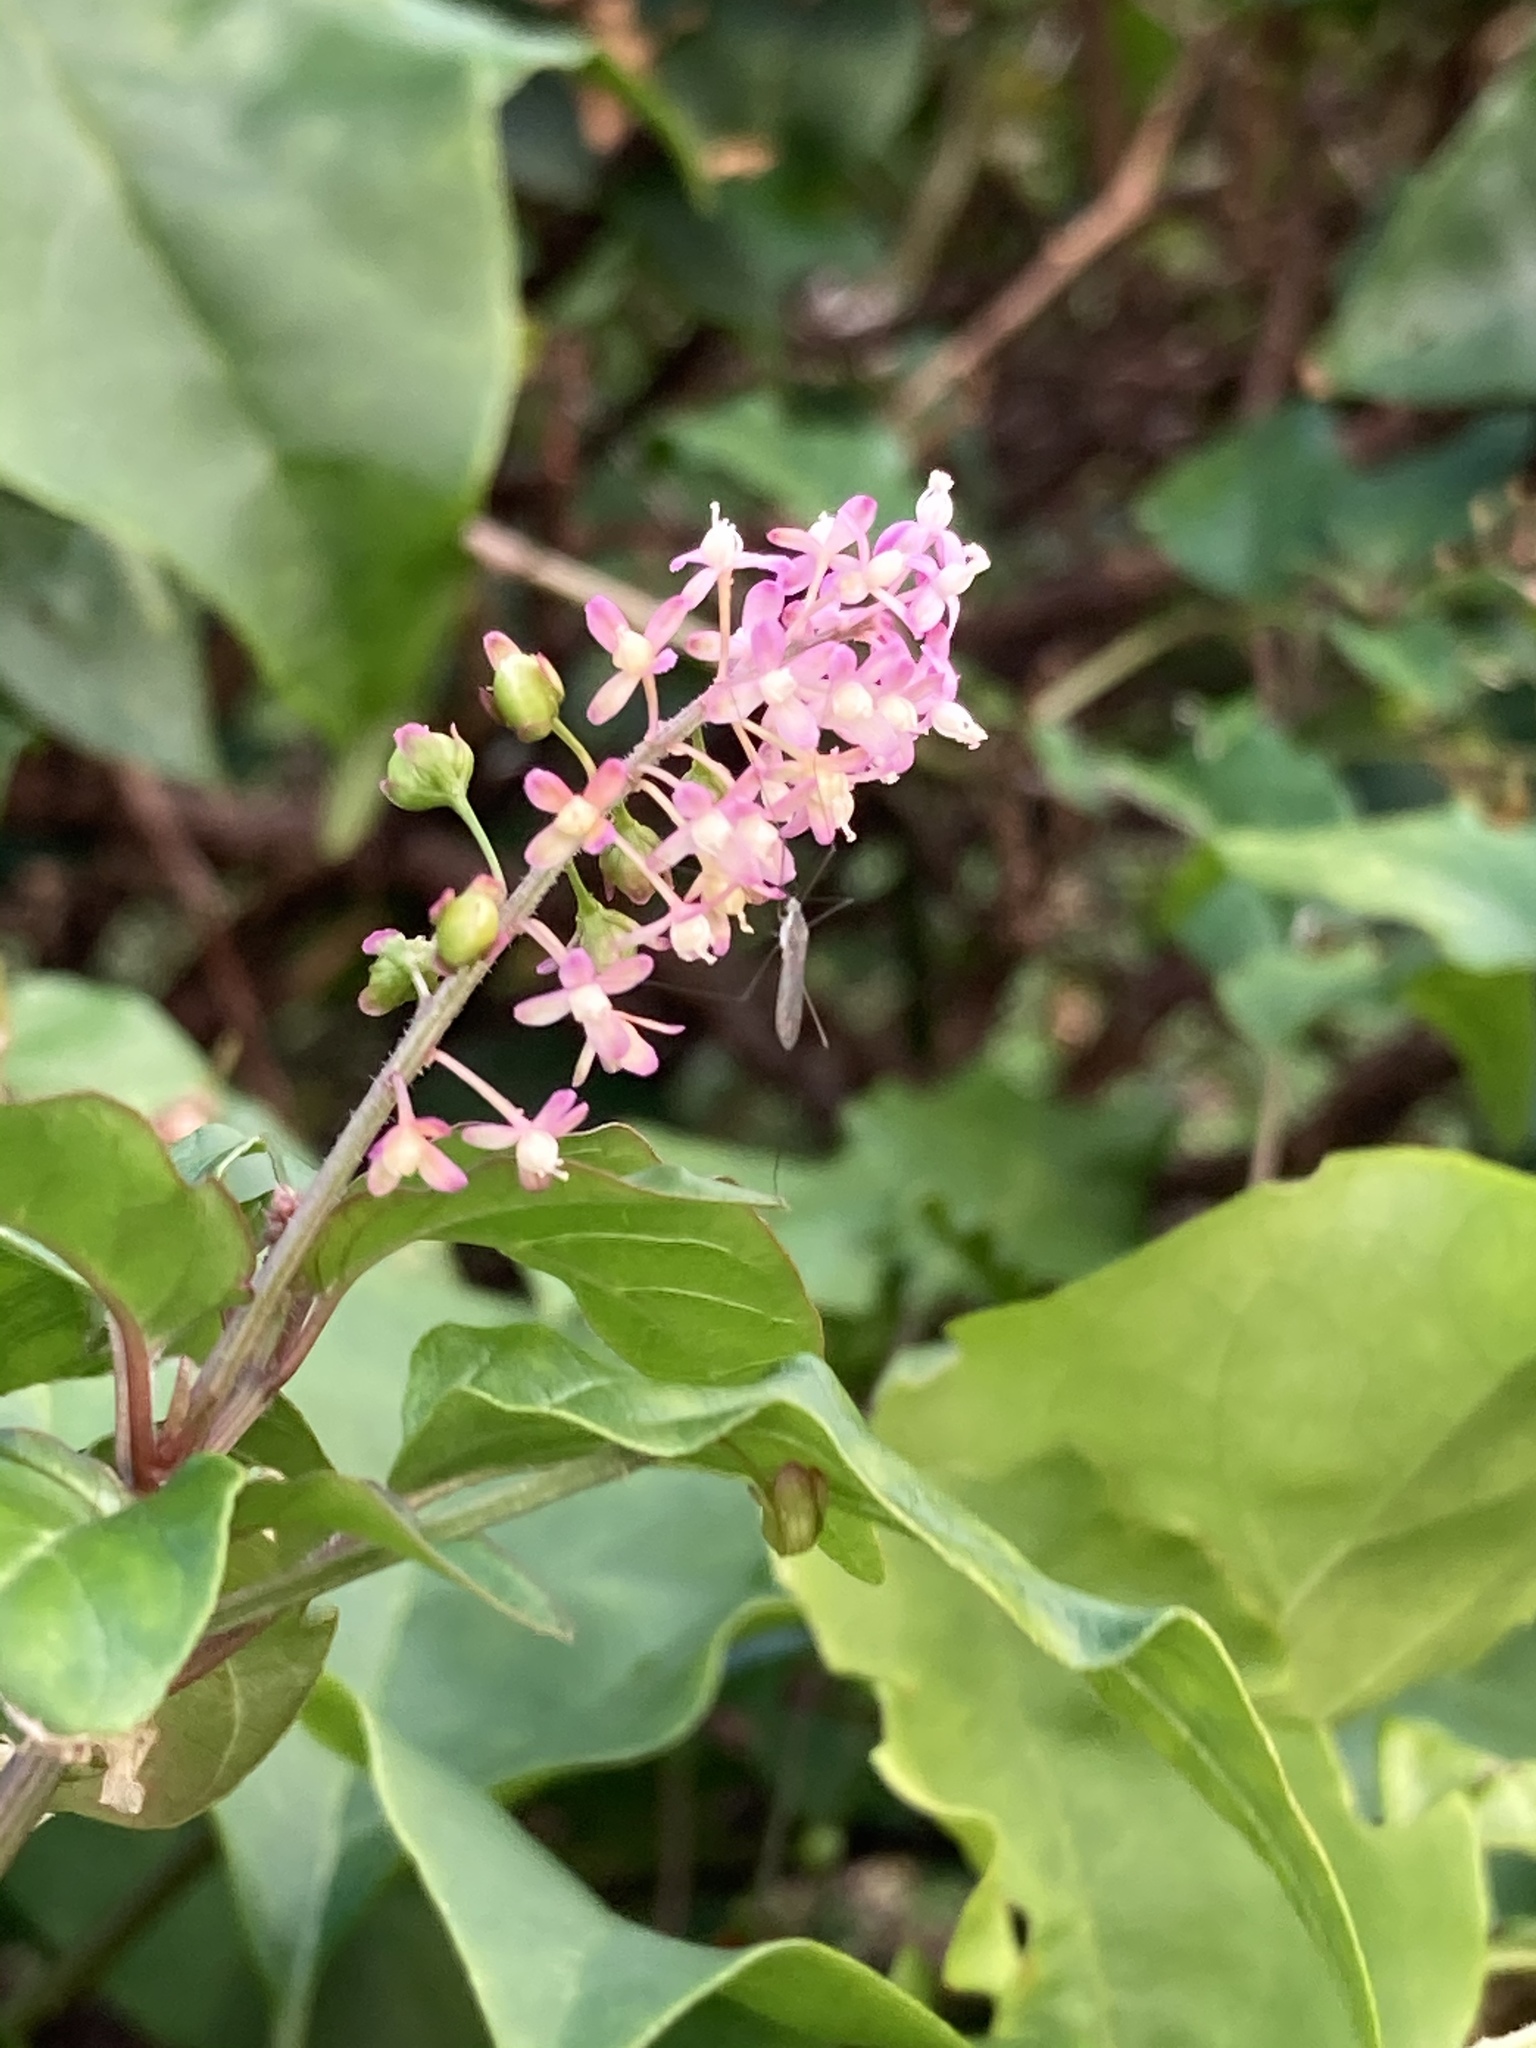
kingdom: Plantae
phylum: Tracheophyta
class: Magnoliopsida
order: Caryophyllales
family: Phytolaccaceae
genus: Rivina
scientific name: Rivina humilis
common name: Rougeplant
